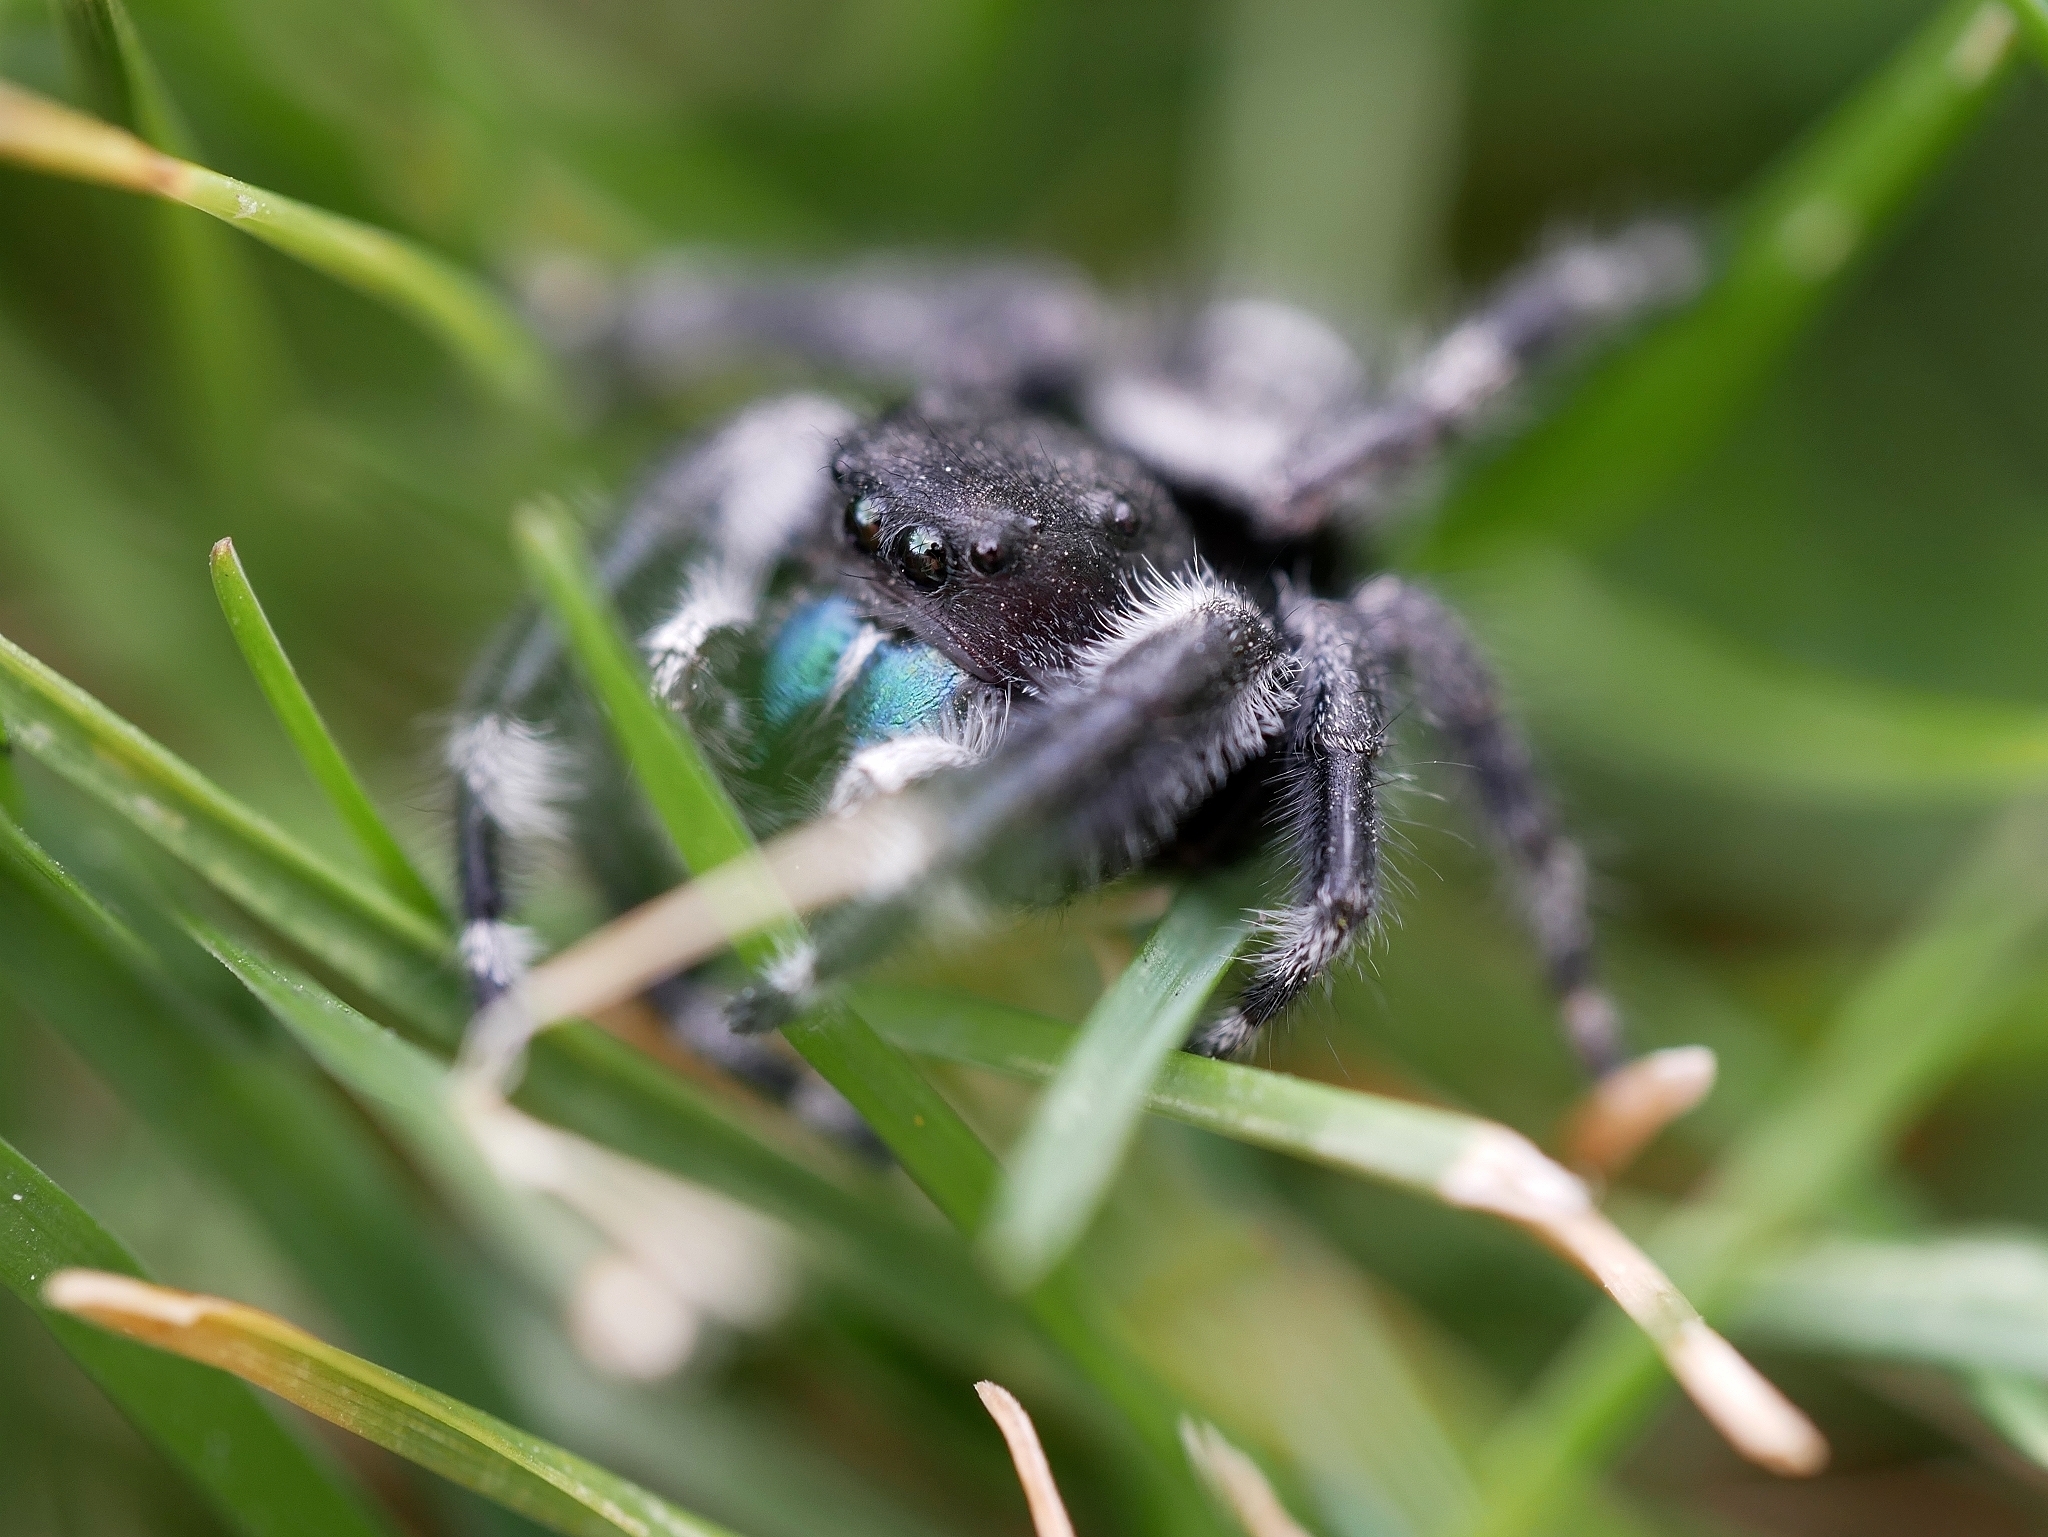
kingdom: Animalia
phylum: Arthropoda
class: Arachnida
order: Araneae
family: Salticidae
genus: Phidippus
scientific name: Phidippus audax
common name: Bold jumper
